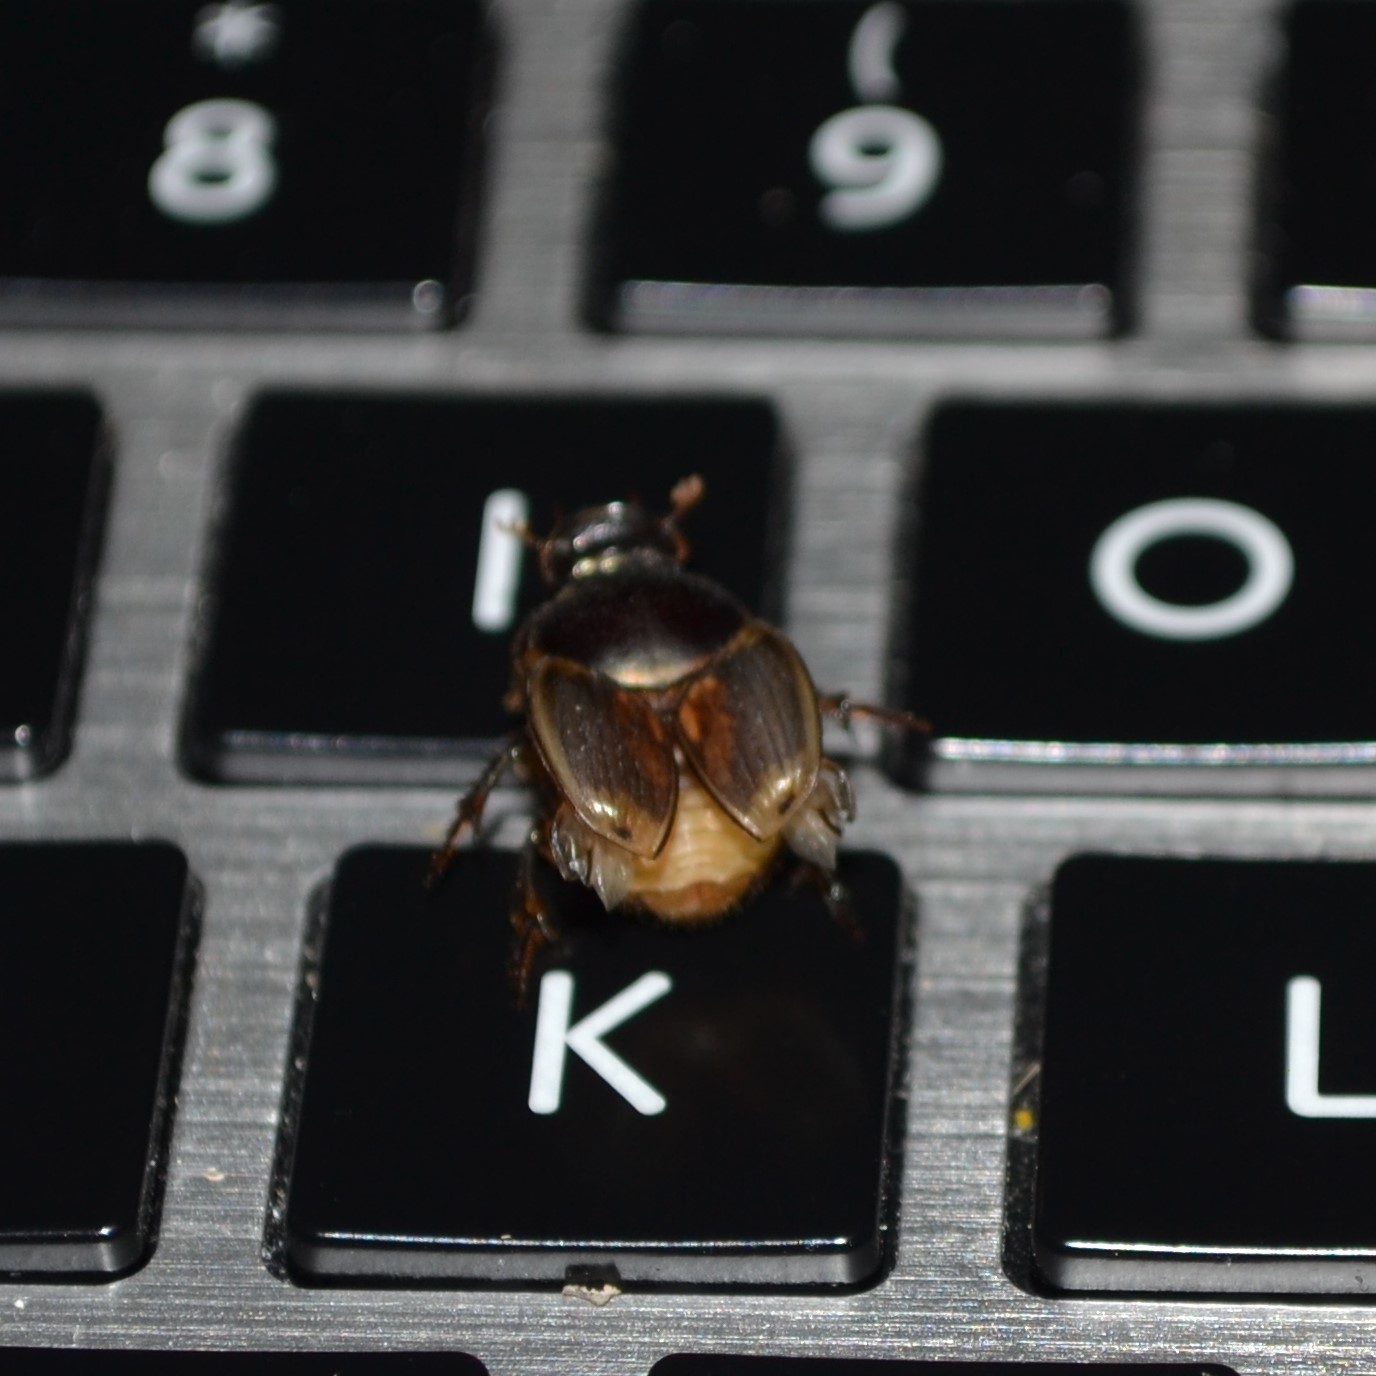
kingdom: Animalia
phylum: Arthropoda
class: Insecta
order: Coleoptera
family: Scarabaeidae
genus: Digitonthophagus
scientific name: Digitonthophagus gazella
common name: Brown dung beetle
